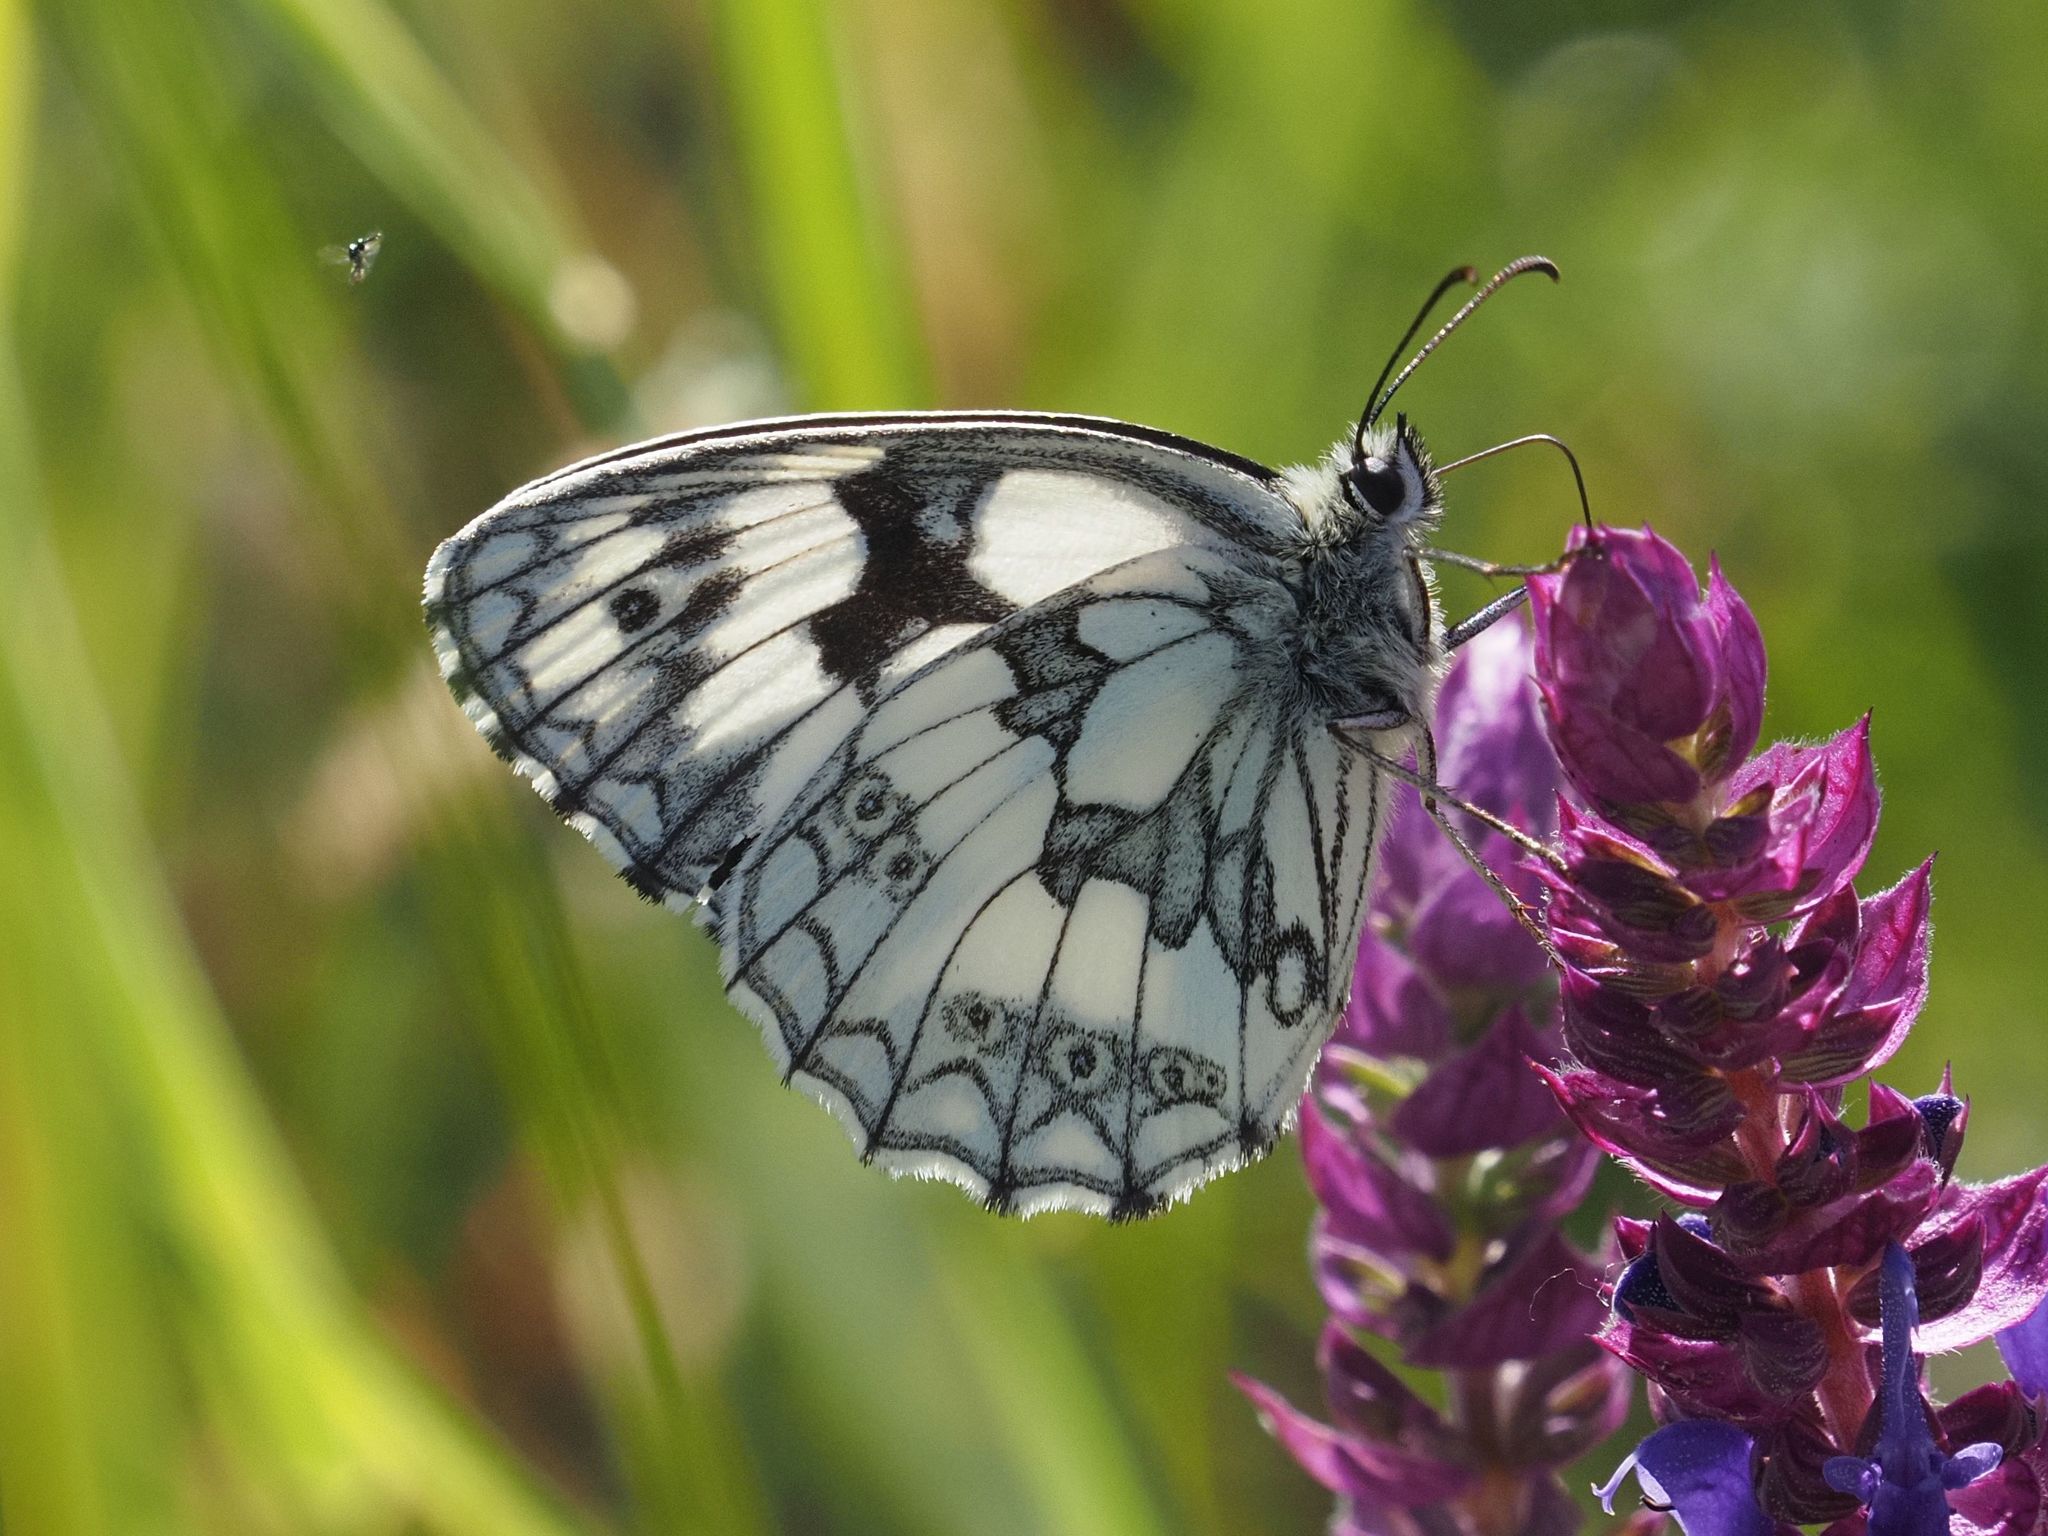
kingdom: Animalia
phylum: Arthropoda
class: Insecta
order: Lepidoptera
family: Nymphalidae
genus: Melanargia
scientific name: Melanargia galathea
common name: Marbled white
